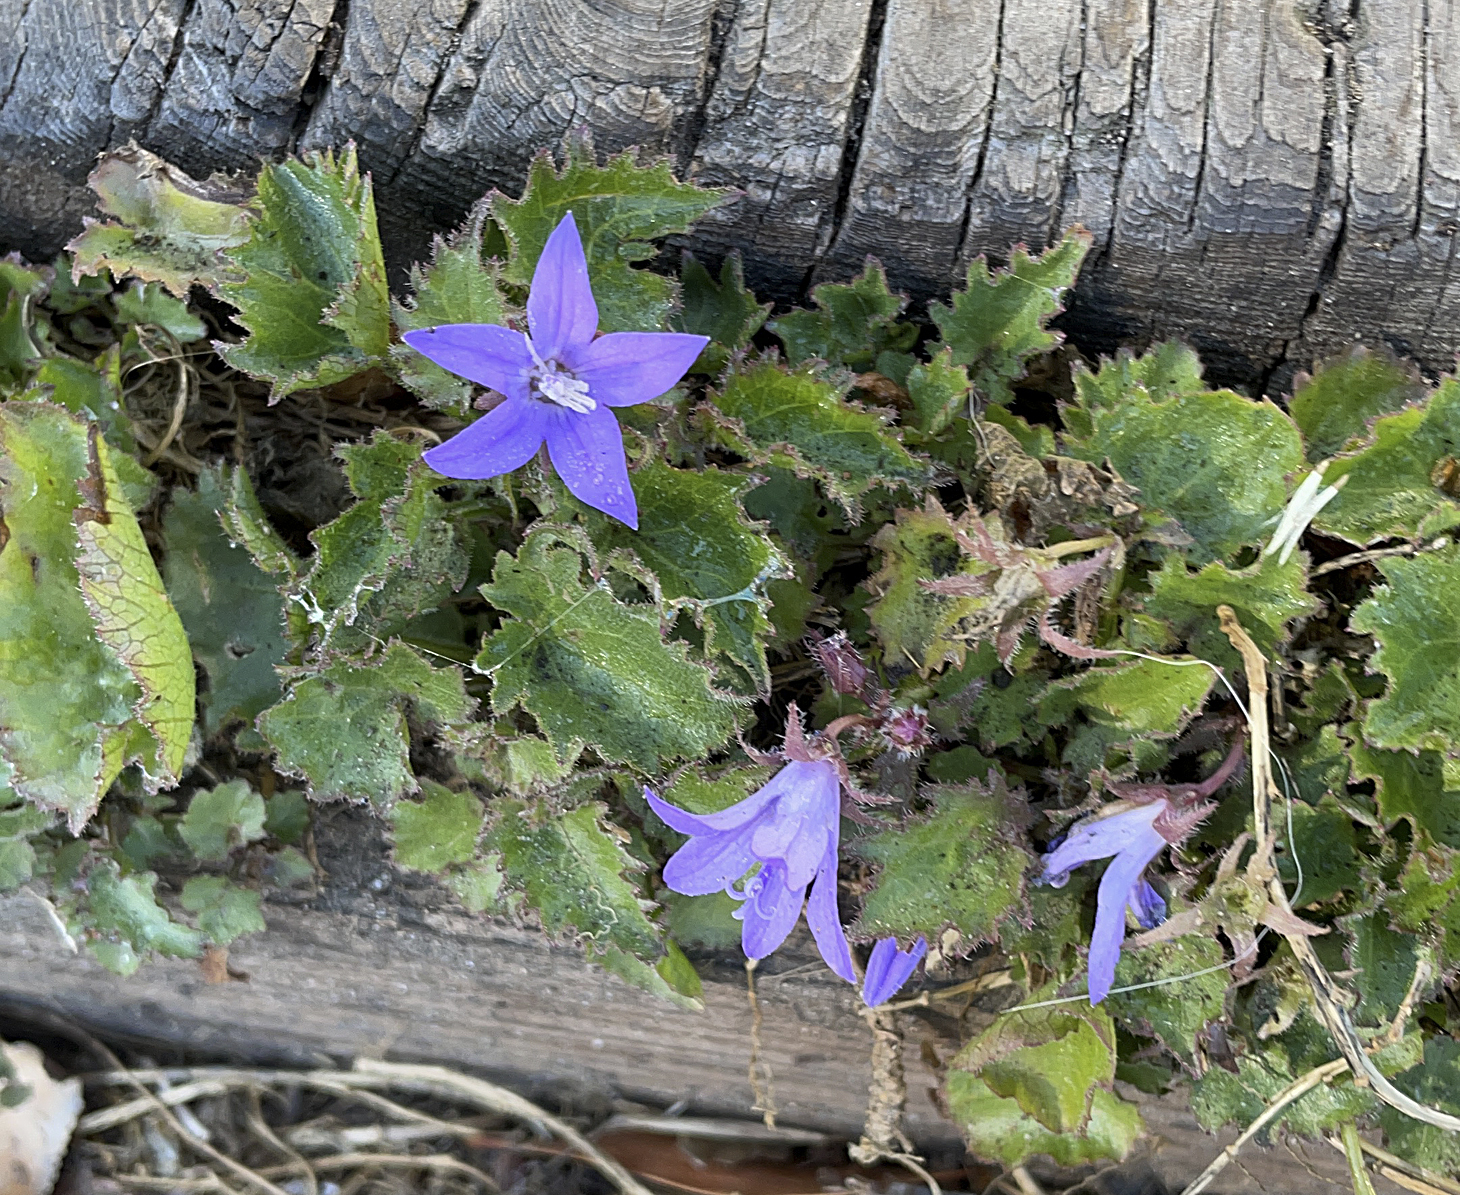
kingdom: Plantae
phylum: Tracheophyta
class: Magnoliopsida
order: Asterales
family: Campanulaceae
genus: Campanula
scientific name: Campanula poscharskyana
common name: Trailing bellflower
